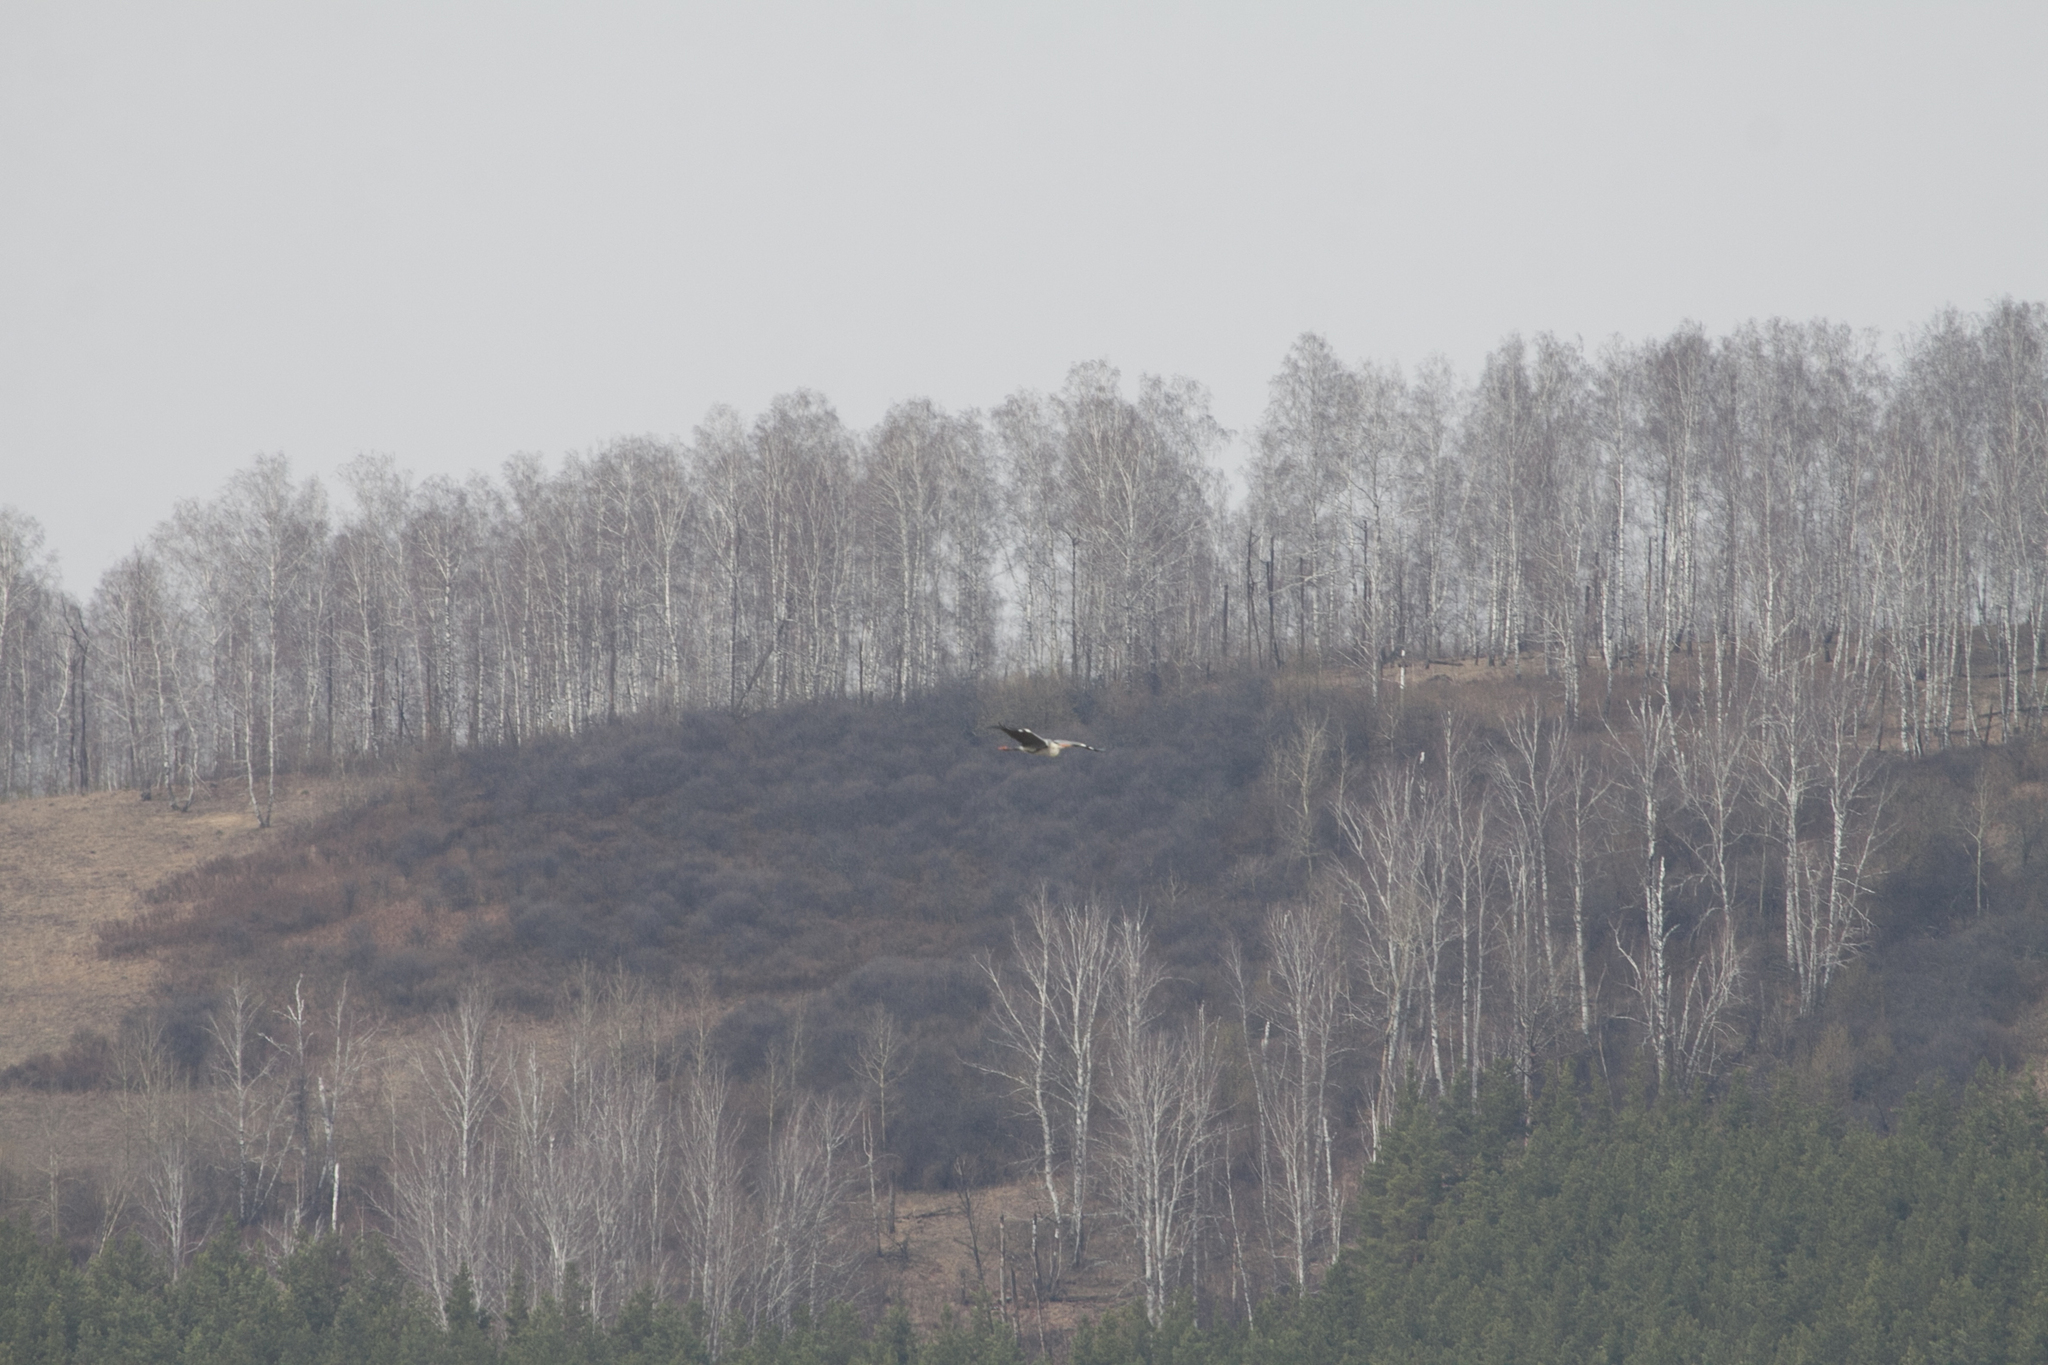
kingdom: Animalia
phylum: Chordata
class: Aves
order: Pelecaniformes
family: Ardeidae
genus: Ardea
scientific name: Ardea cinerea
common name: Grey heron
